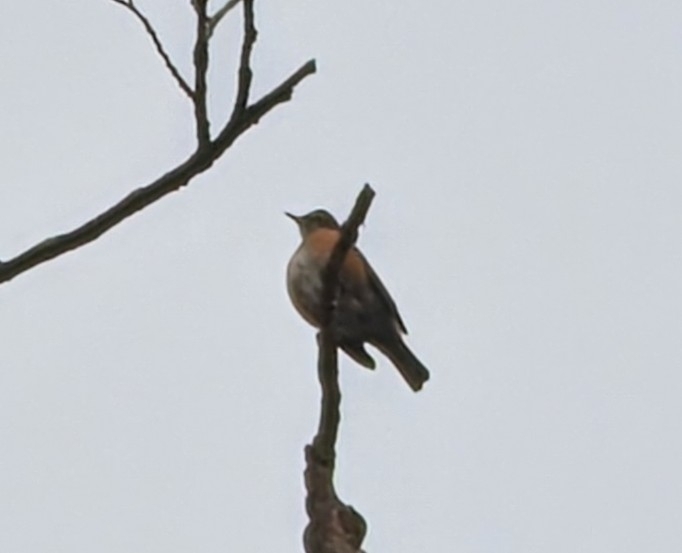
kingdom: Animalia
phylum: Chordata
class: Aves
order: Passeriformes
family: Turdidae
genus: Turdus
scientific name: Turdus migratorius
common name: American robin
